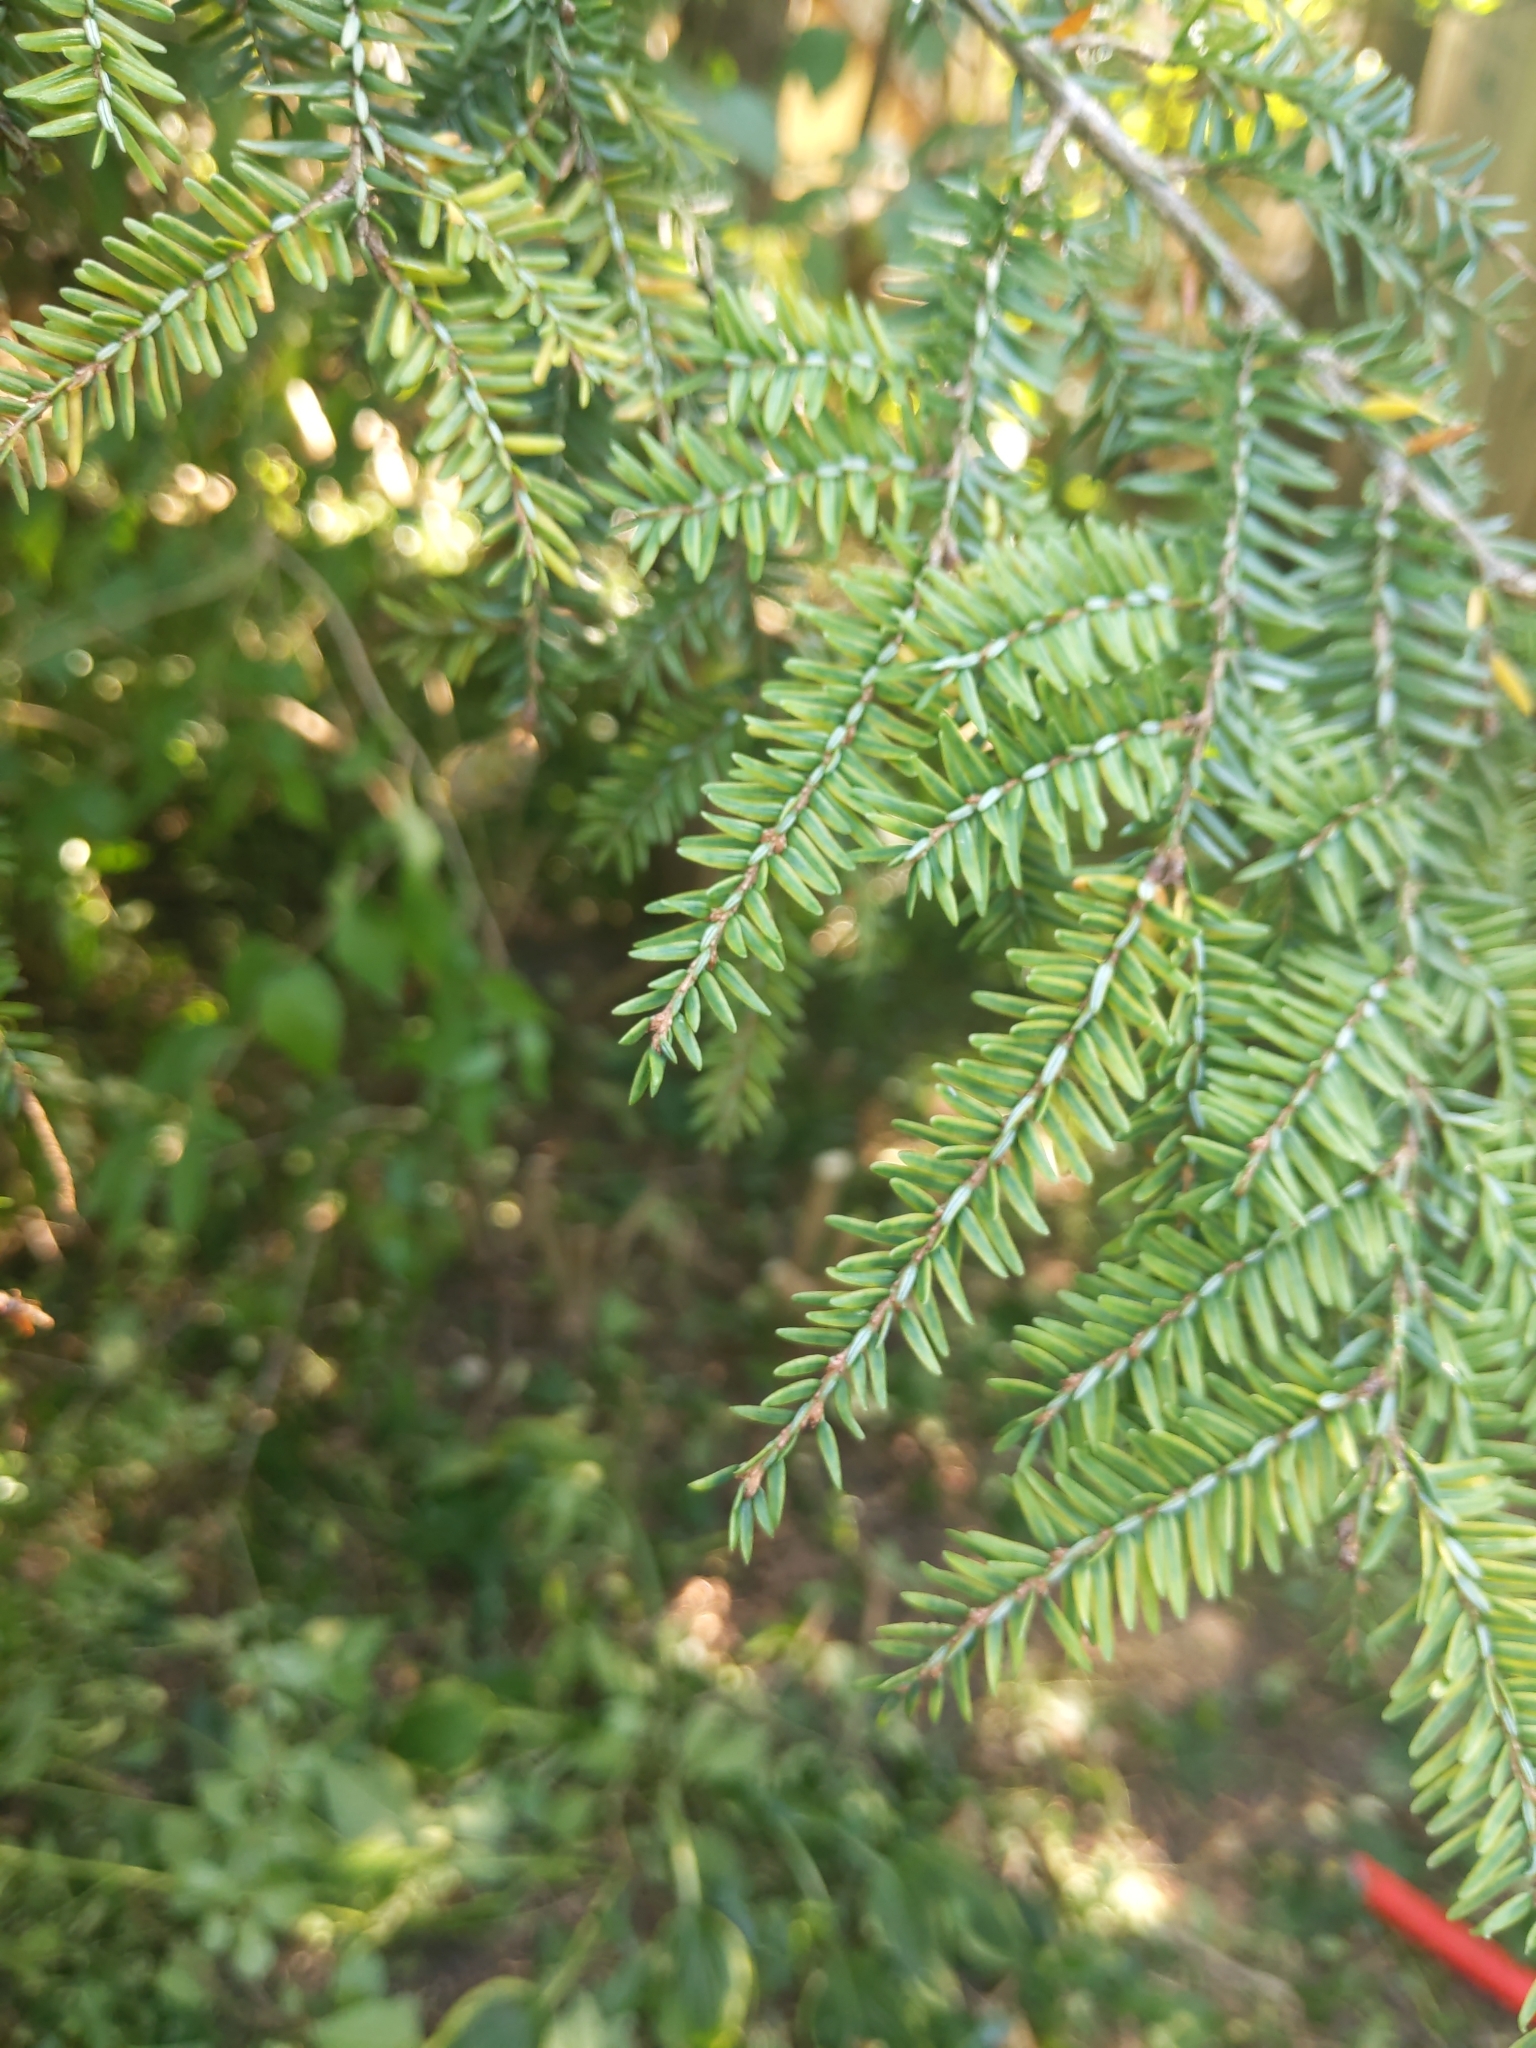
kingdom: Plantae
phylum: Tracheophyta
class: Pinopsida
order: Pinales
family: Pinaceae
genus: Tsuga
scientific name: Tsuga canadensis
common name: Eastern hemlock
